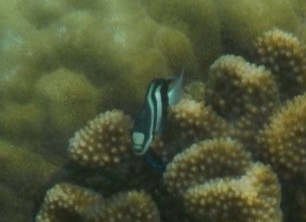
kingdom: Animalia
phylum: Chordata
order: Perciformes
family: Pomacentridae
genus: Dascyllus
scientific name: Dascyllus abudafur
